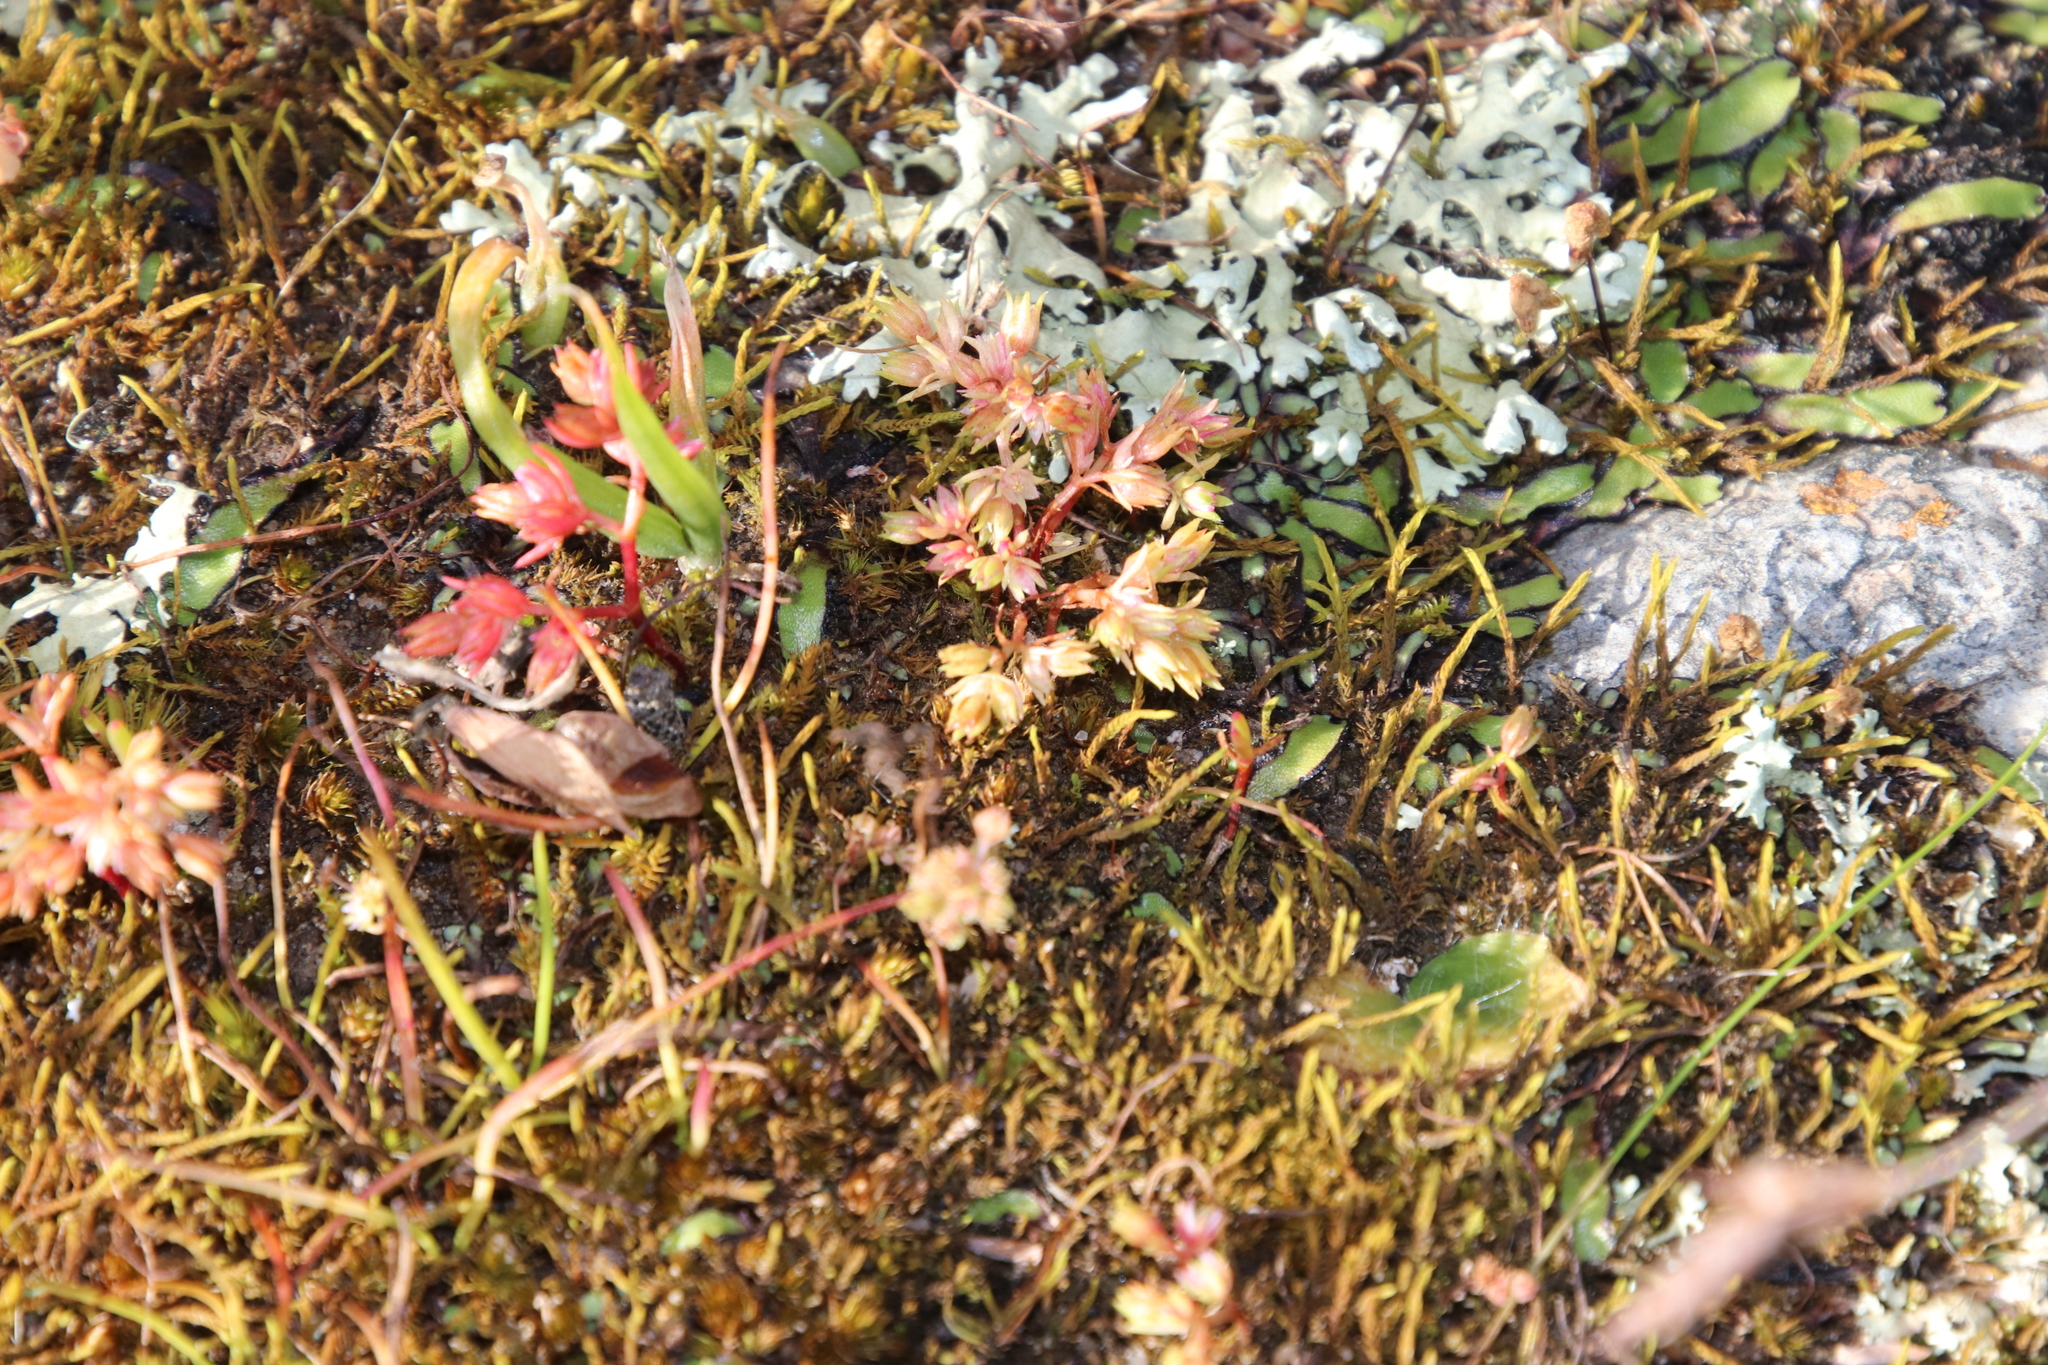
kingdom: Plantae
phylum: Marchantiophyta
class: Marchantiopsida
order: Marchantiales
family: Aytoniaceae
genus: Asterella
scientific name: Asterella marginata
